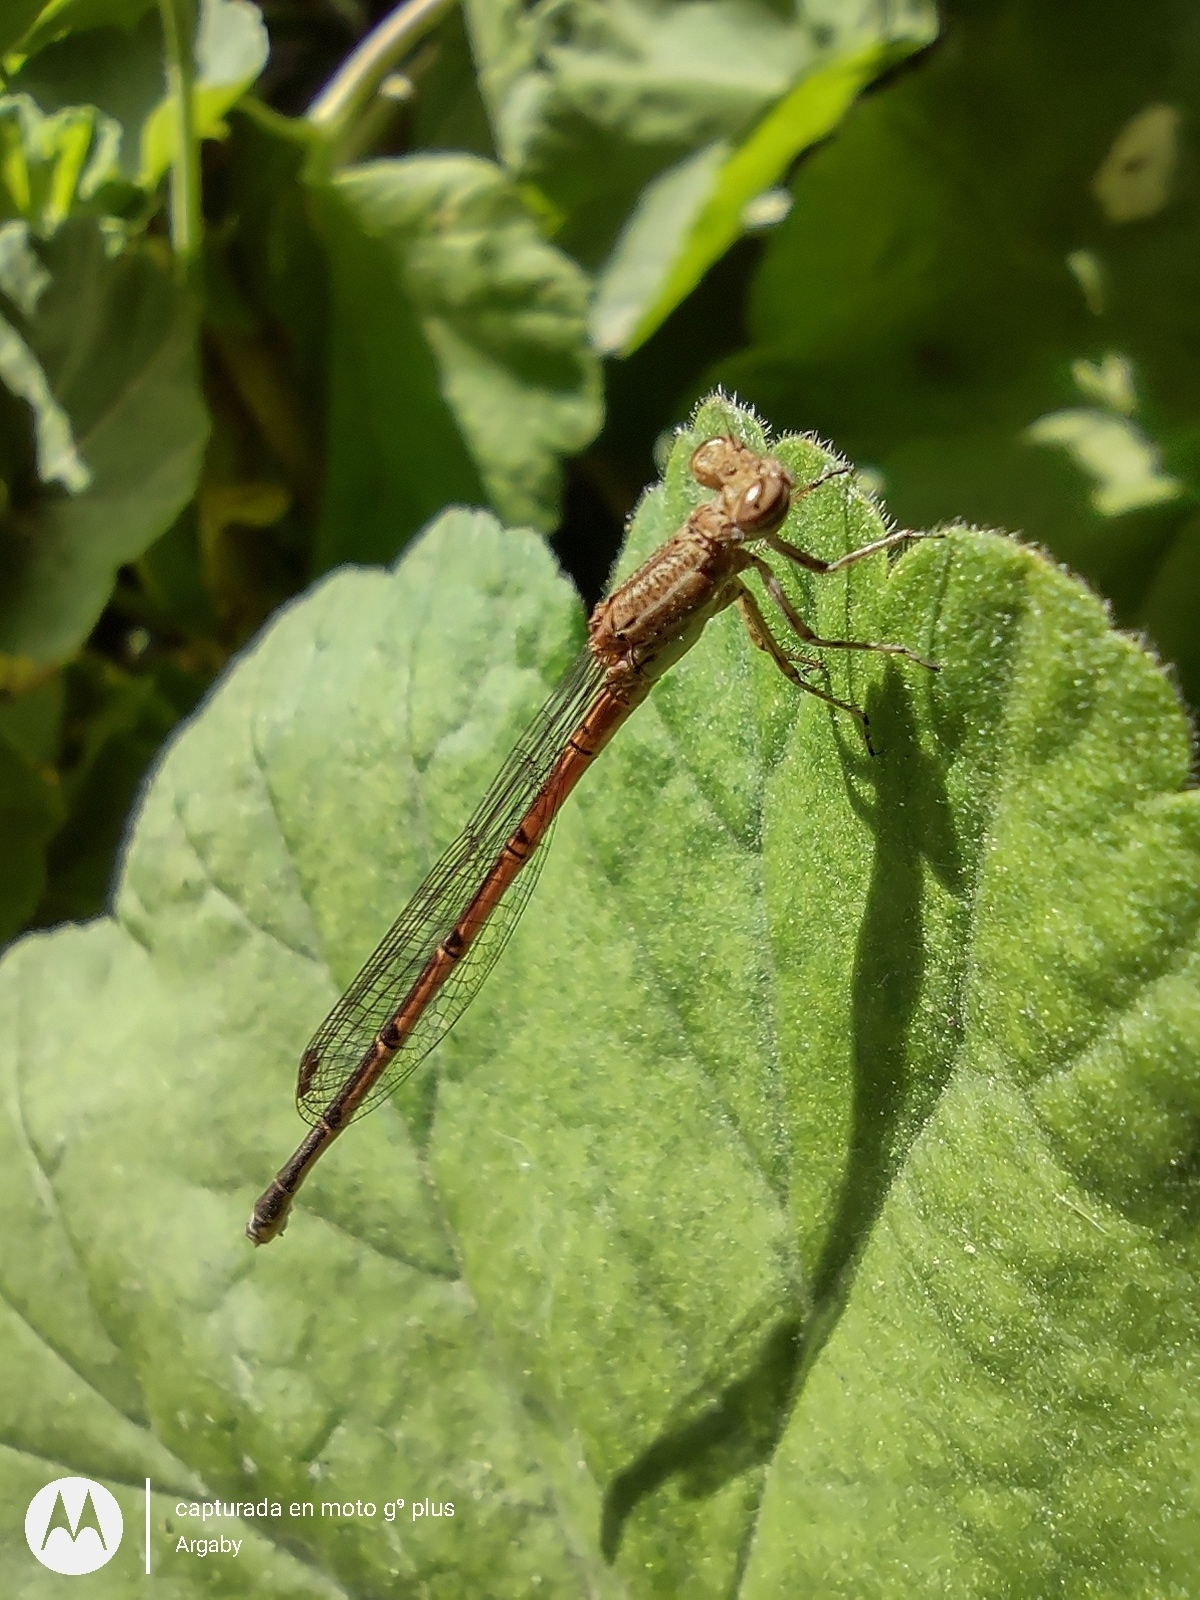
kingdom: Animalia
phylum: Arthropoda
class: Insecta
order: Odonata
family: Coenagrionidae
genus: Oxyagrion
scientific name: Oxyagrion terminale
